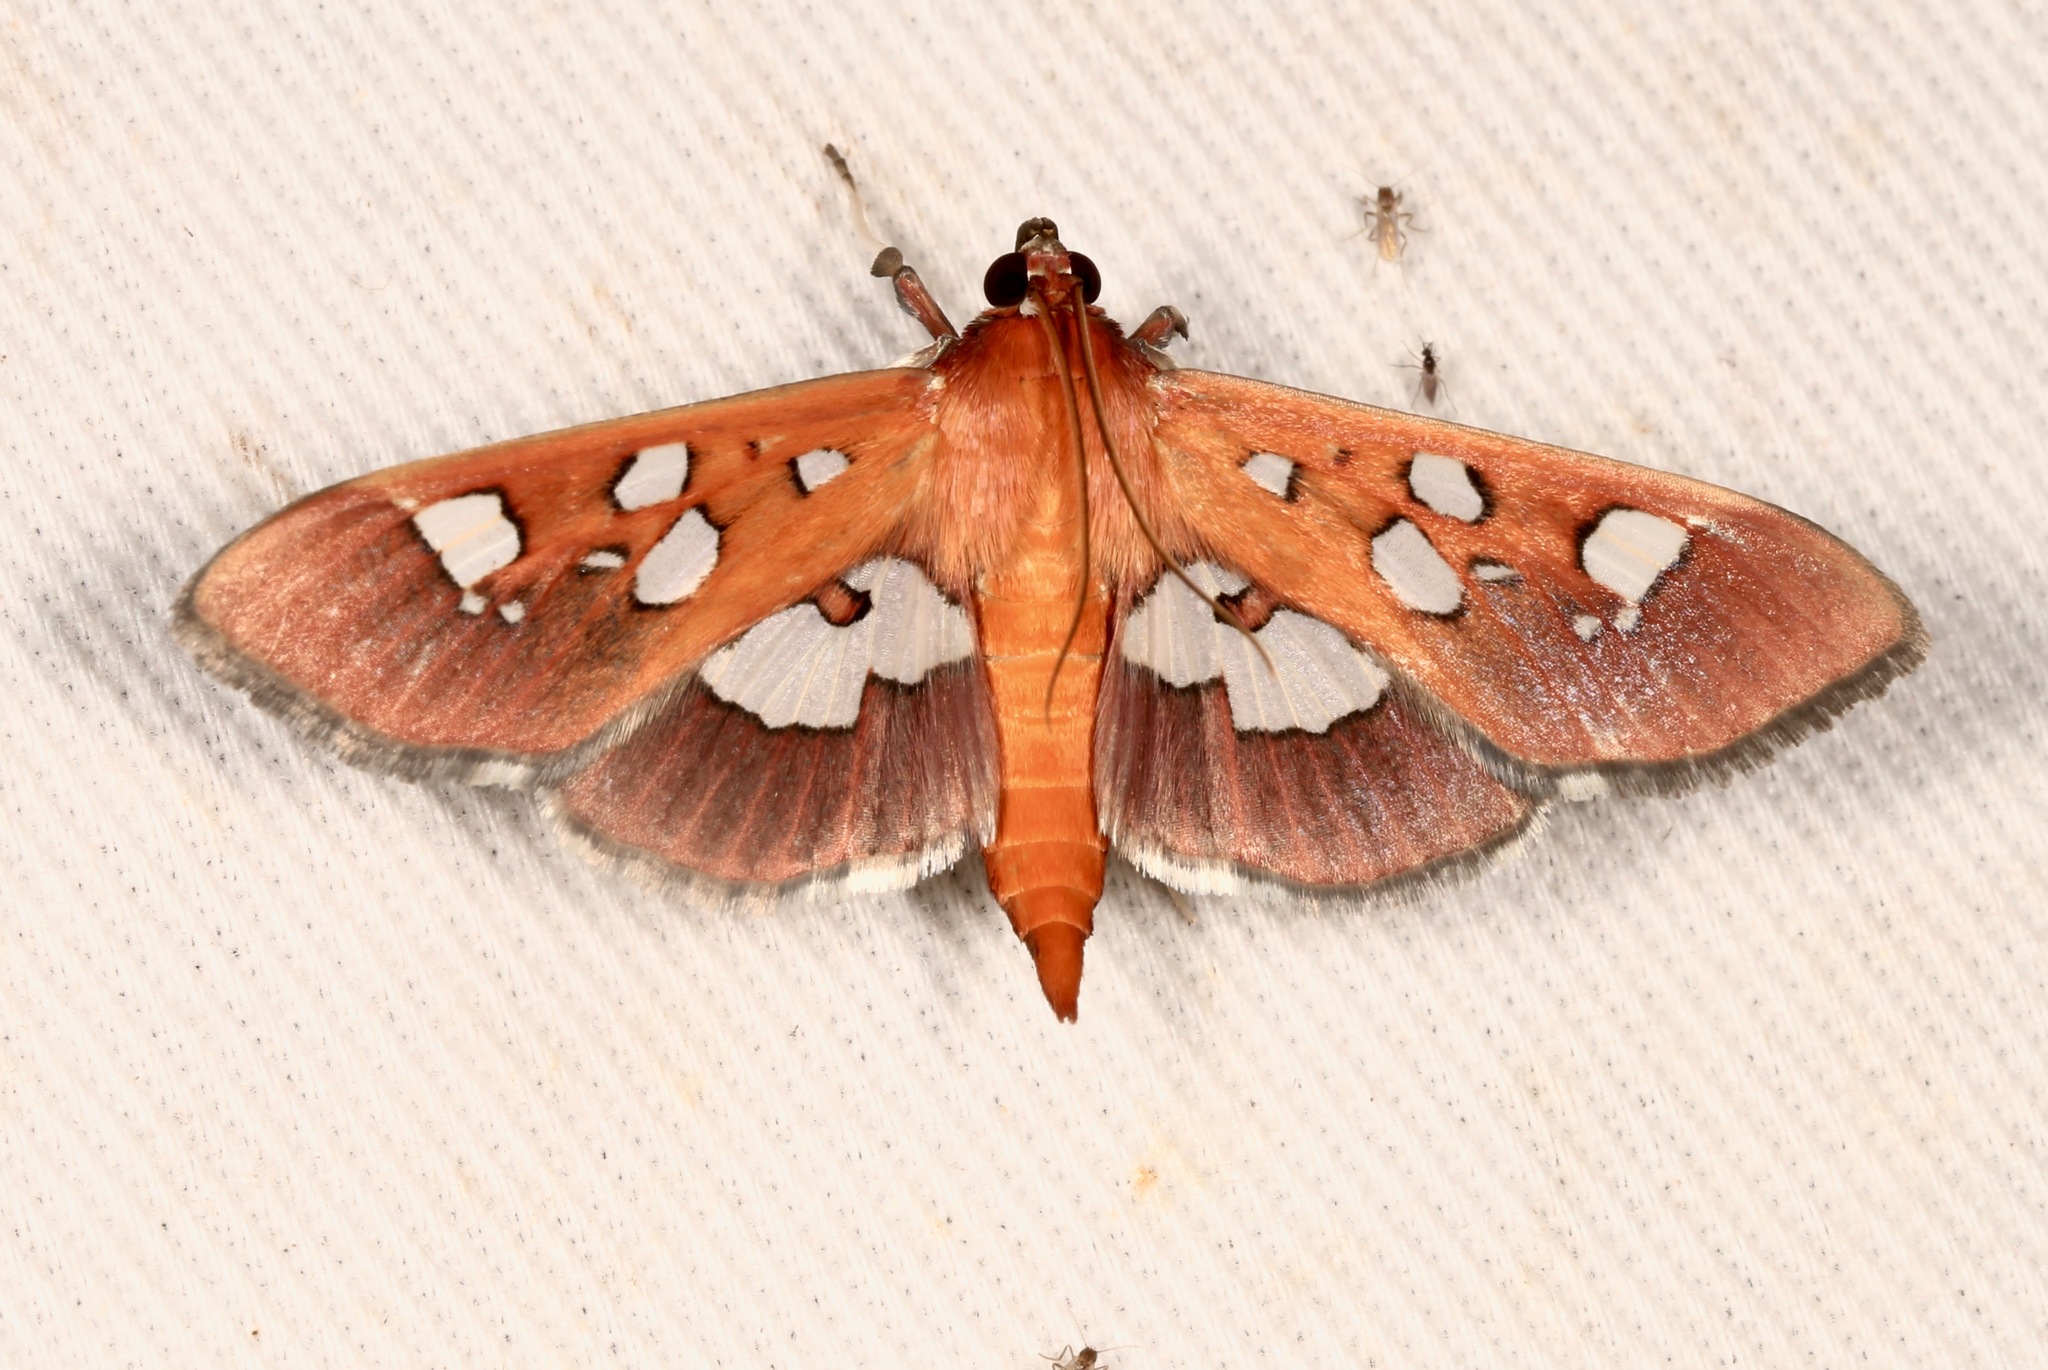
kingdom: Animalia
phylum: Arthropoda
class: Insecta
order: Lepidoptera
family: Crambidae
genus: Phostria
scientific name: Phostria tedea
